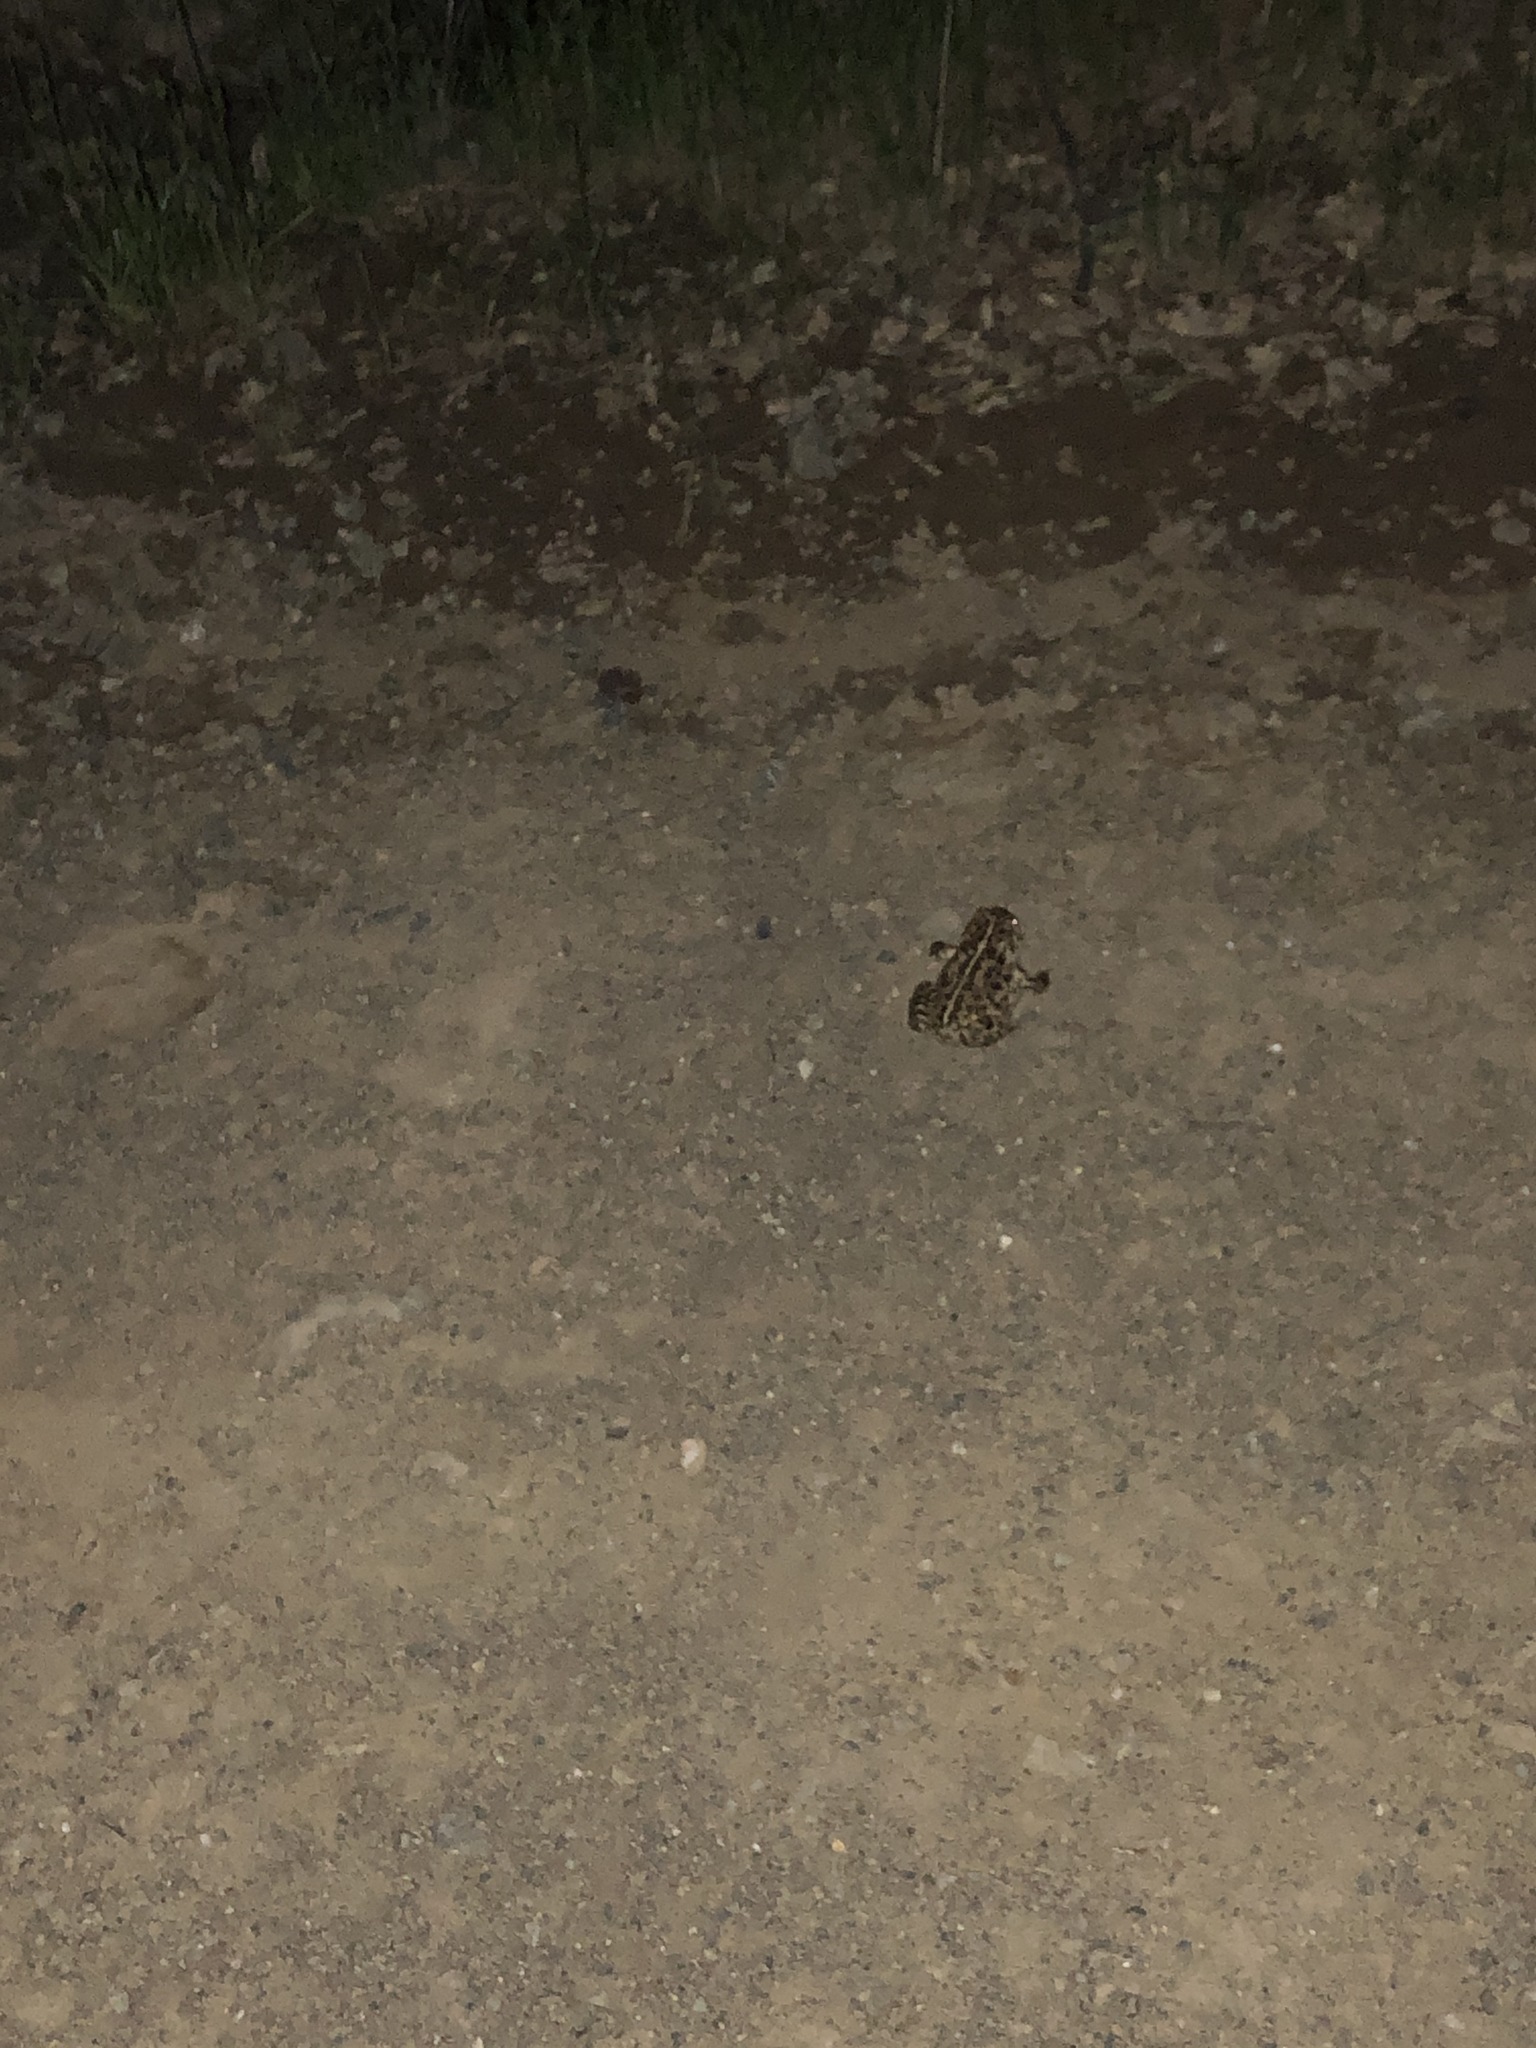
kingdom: Animalia
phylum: Chordata
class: Amphibia
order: Anura
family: Bufonidae
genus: Anaxyrus
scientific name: Anaxyrus boreas
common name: Western toad
